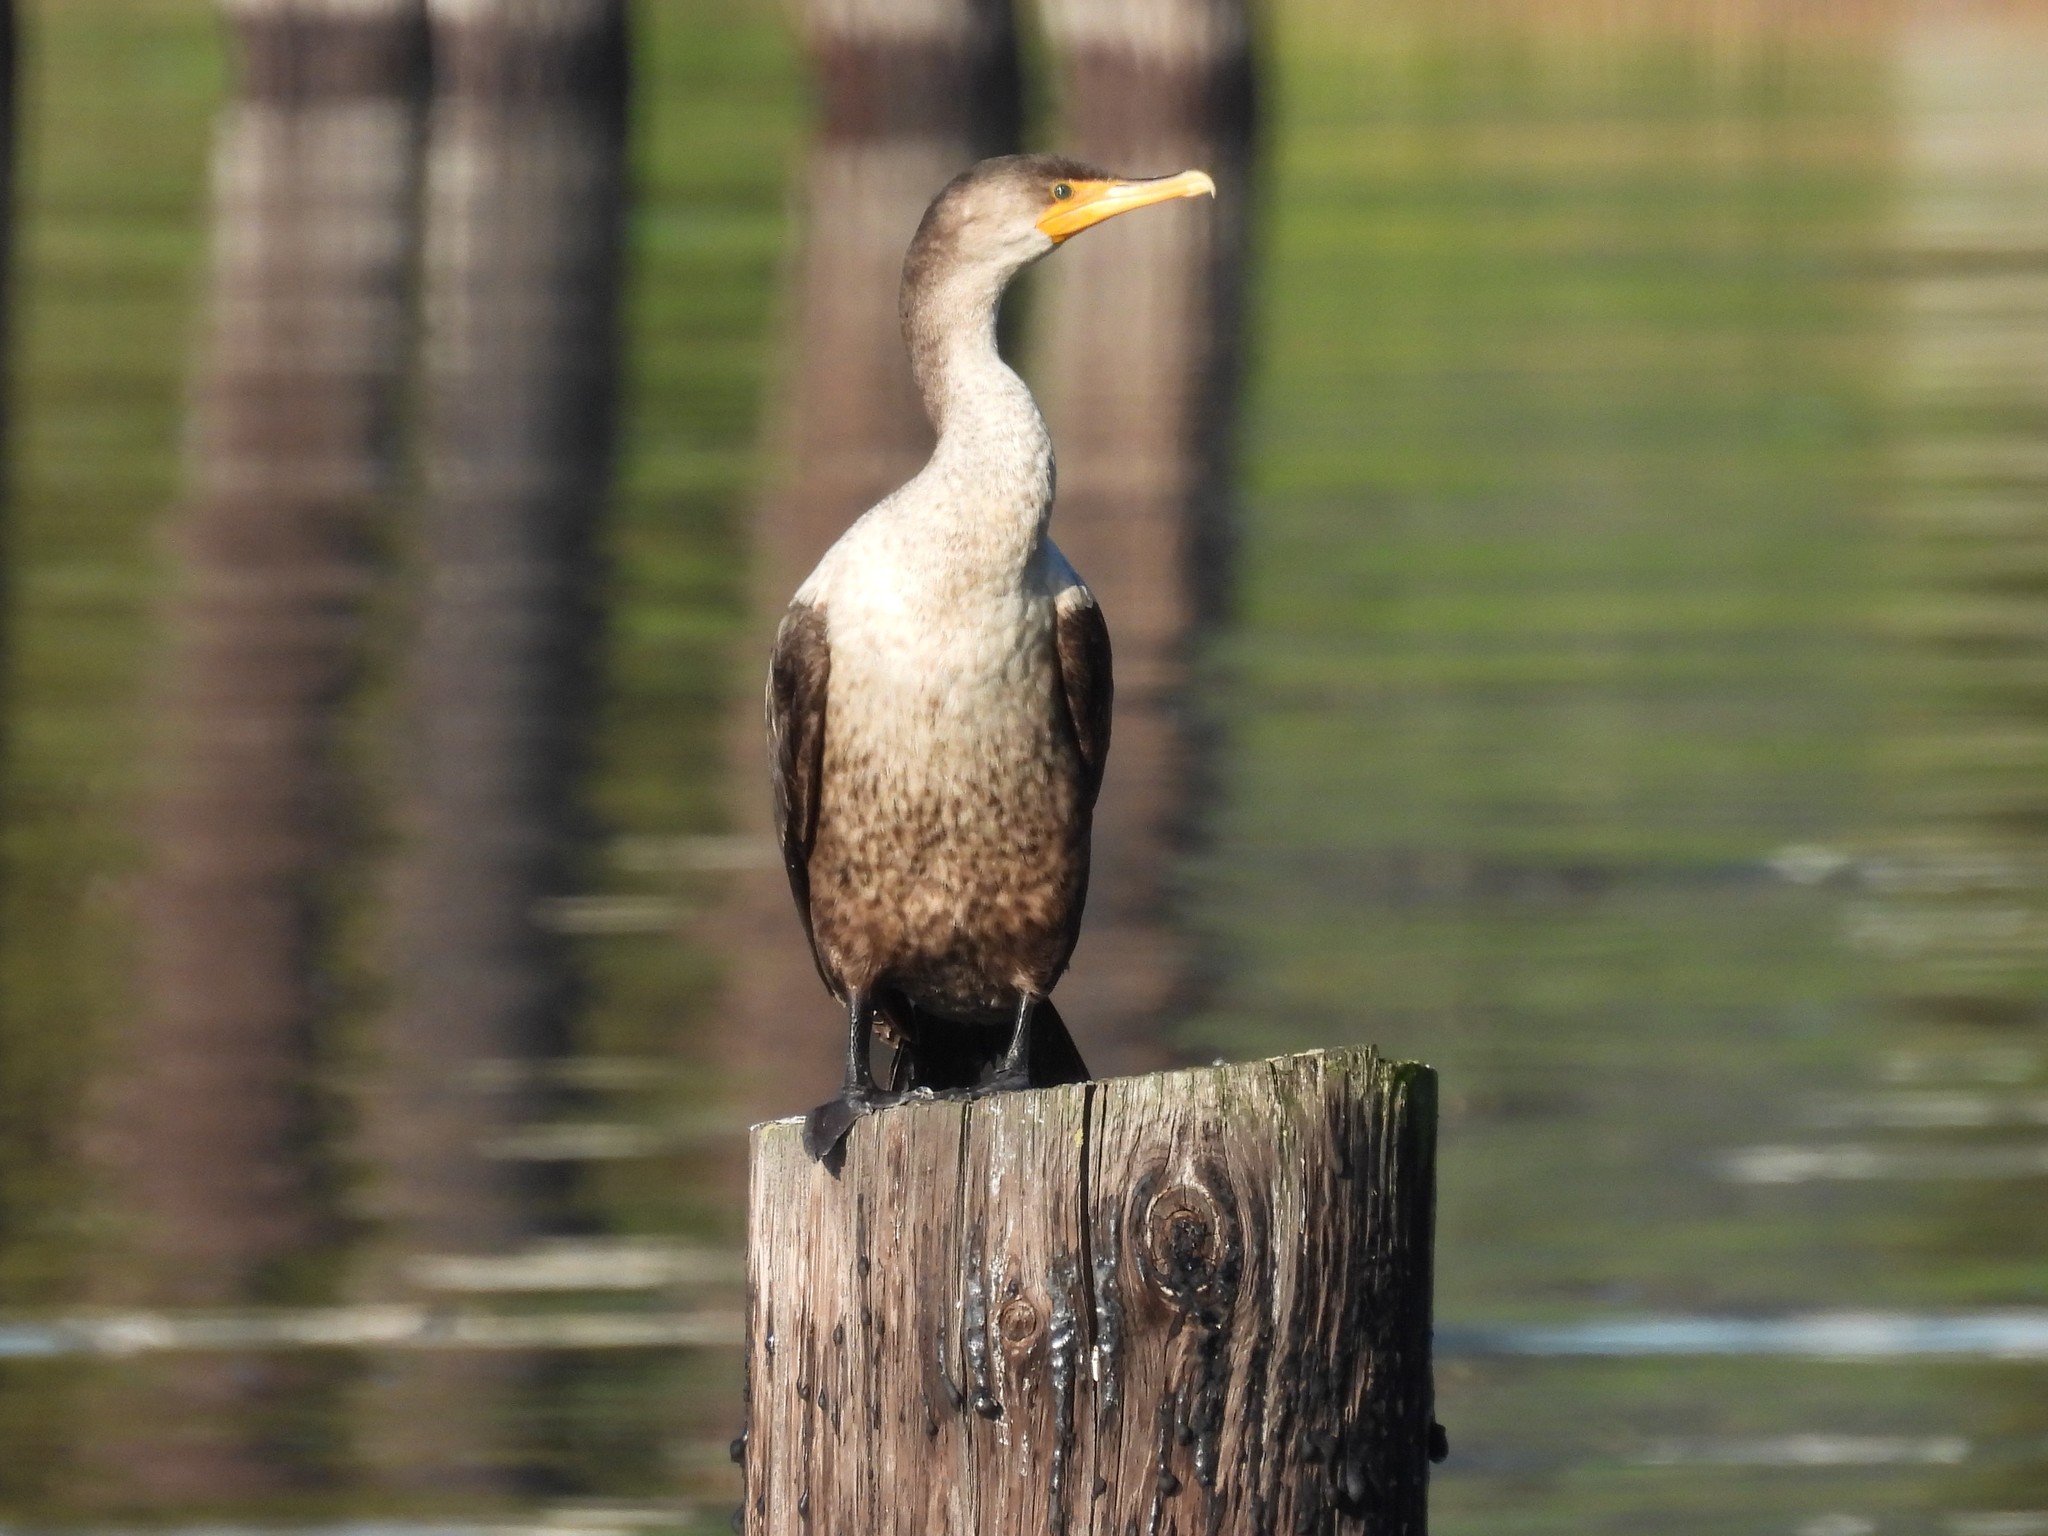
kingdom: Animalia
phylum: Chordata
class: Aves
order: Suliformes
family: Phalacrocoracidae
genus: Phalacrocorax
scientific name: Phalacrocorax auritus
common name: Double-crested cormorant
